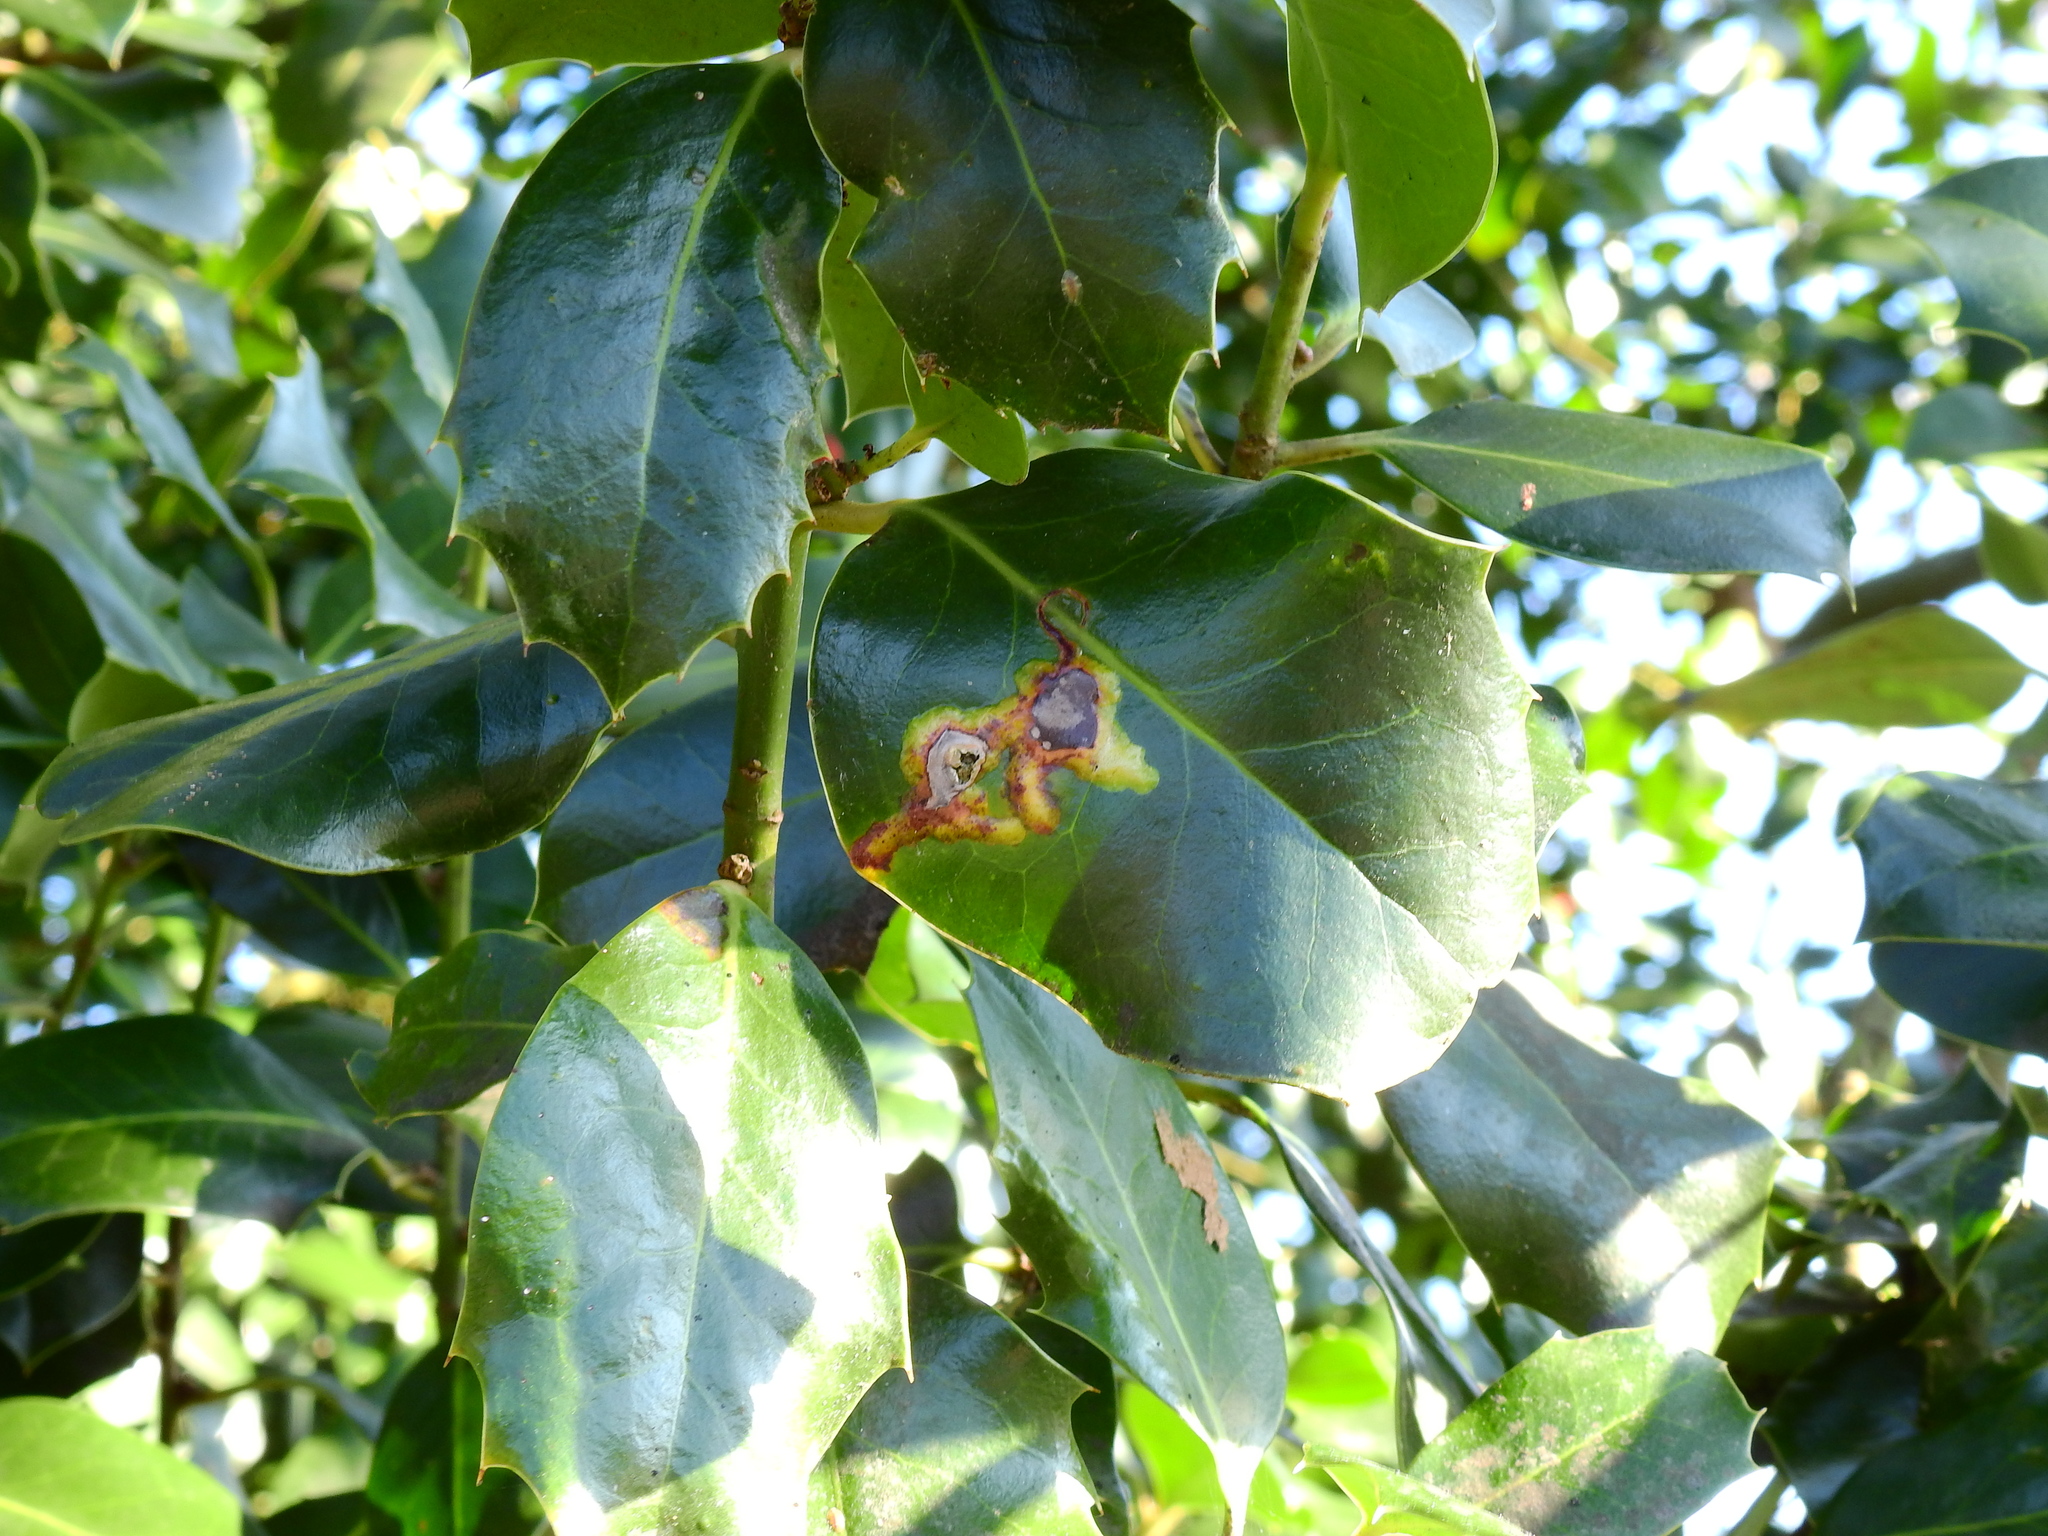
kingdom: Animalia
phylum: Arthropoda
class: Insecta
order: Diptera
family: Agromyzidae
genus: Phytomyza
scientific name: Phytomyza ilicis
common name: Holly leafminer
